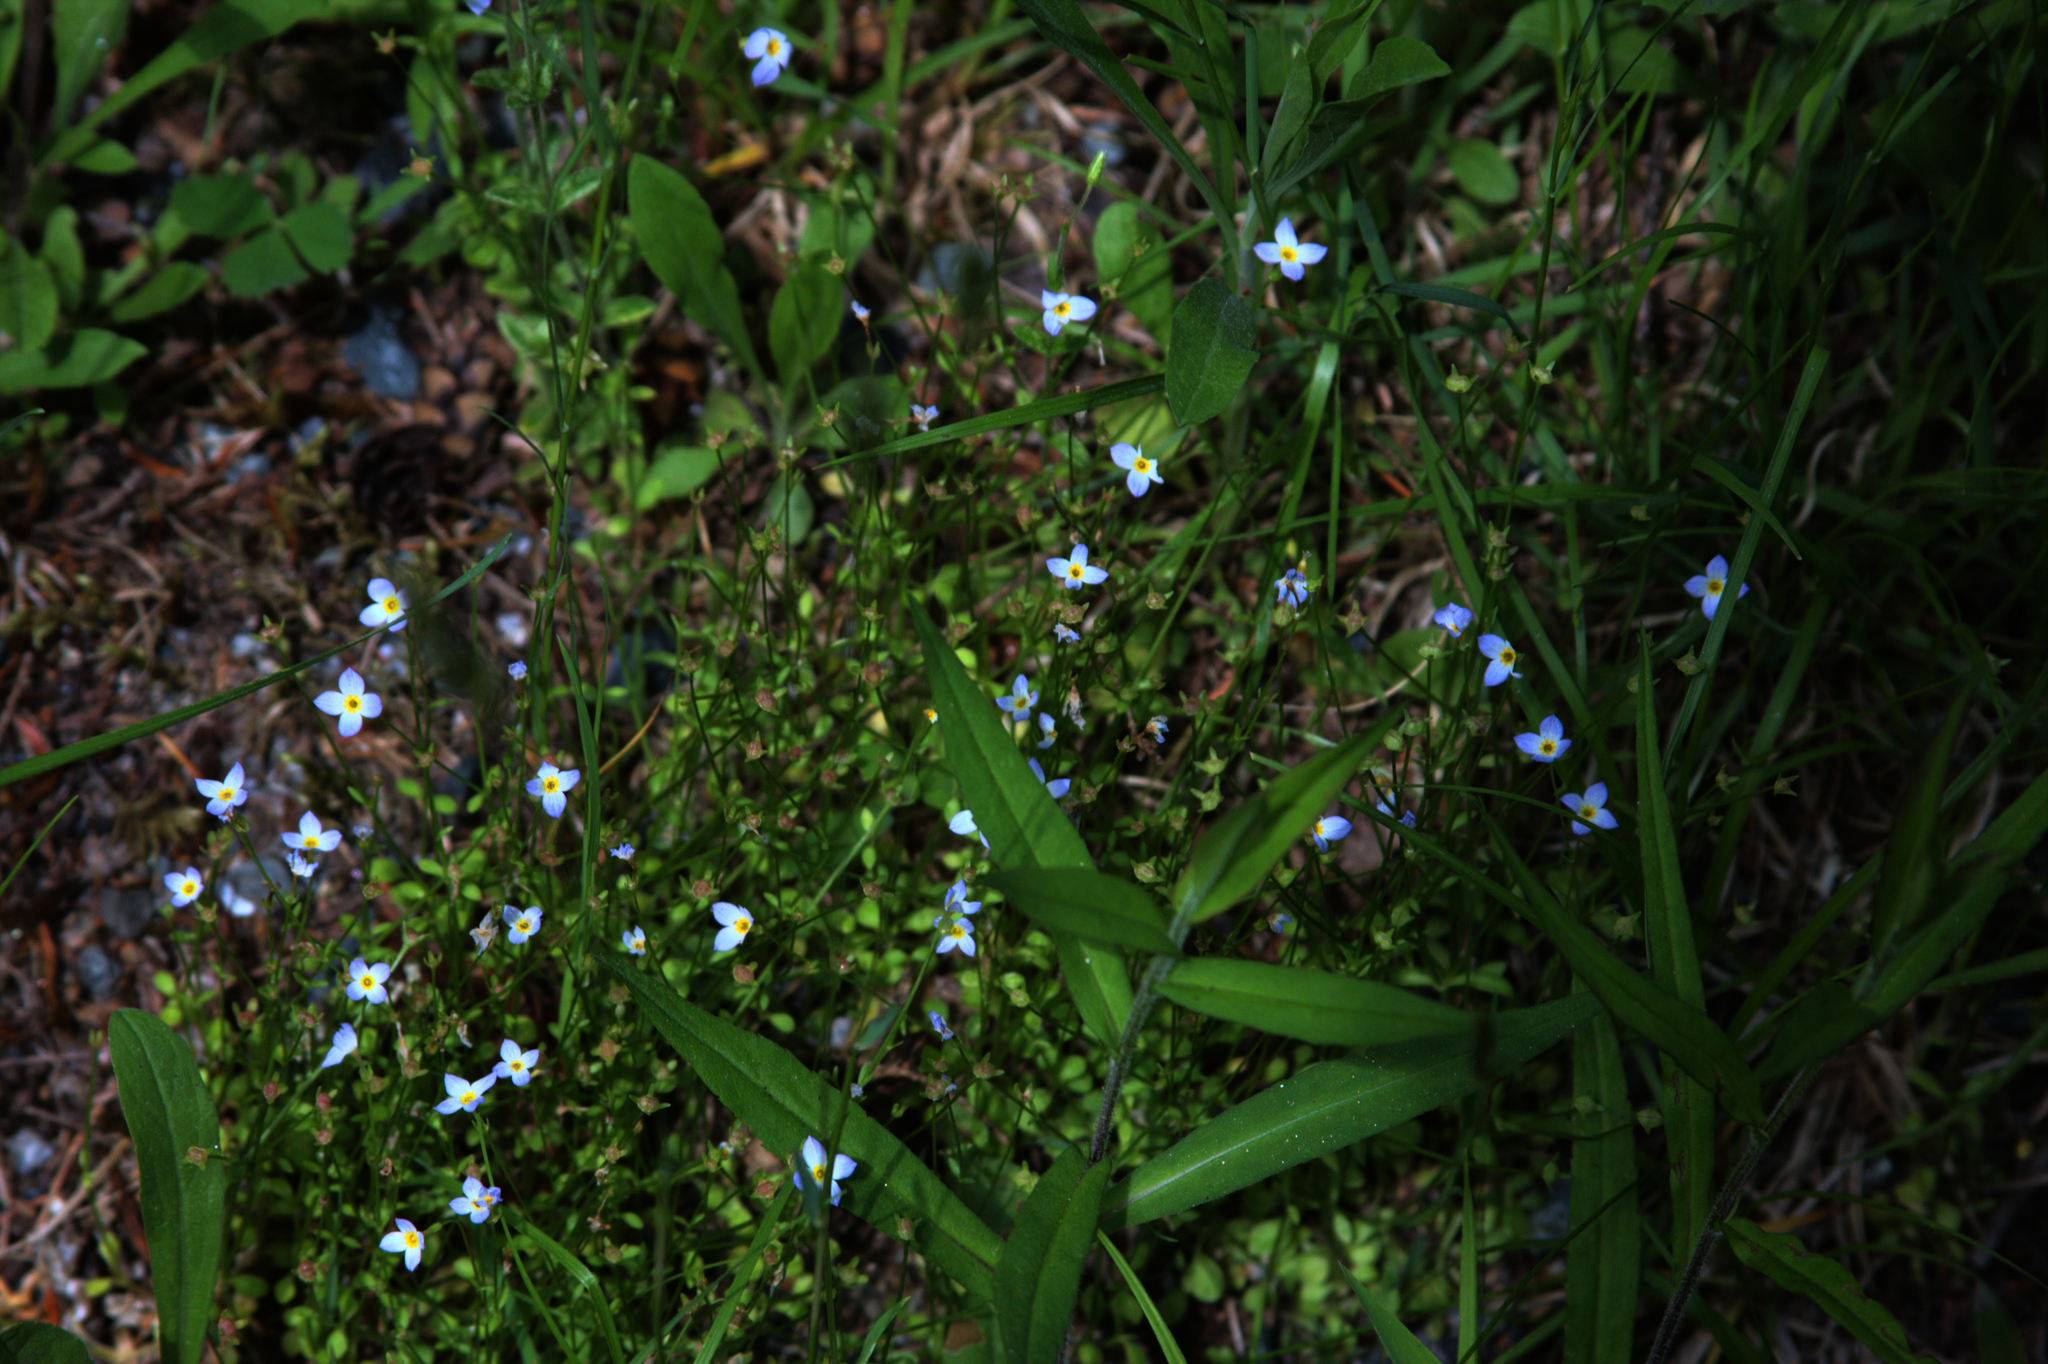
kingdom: Plantae
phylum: Tracheophyta
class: Magnoliopsida
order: Gentianales
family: Rubiaceae
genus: Houstonia
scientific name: Houstonia caerulea
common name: Bluets
